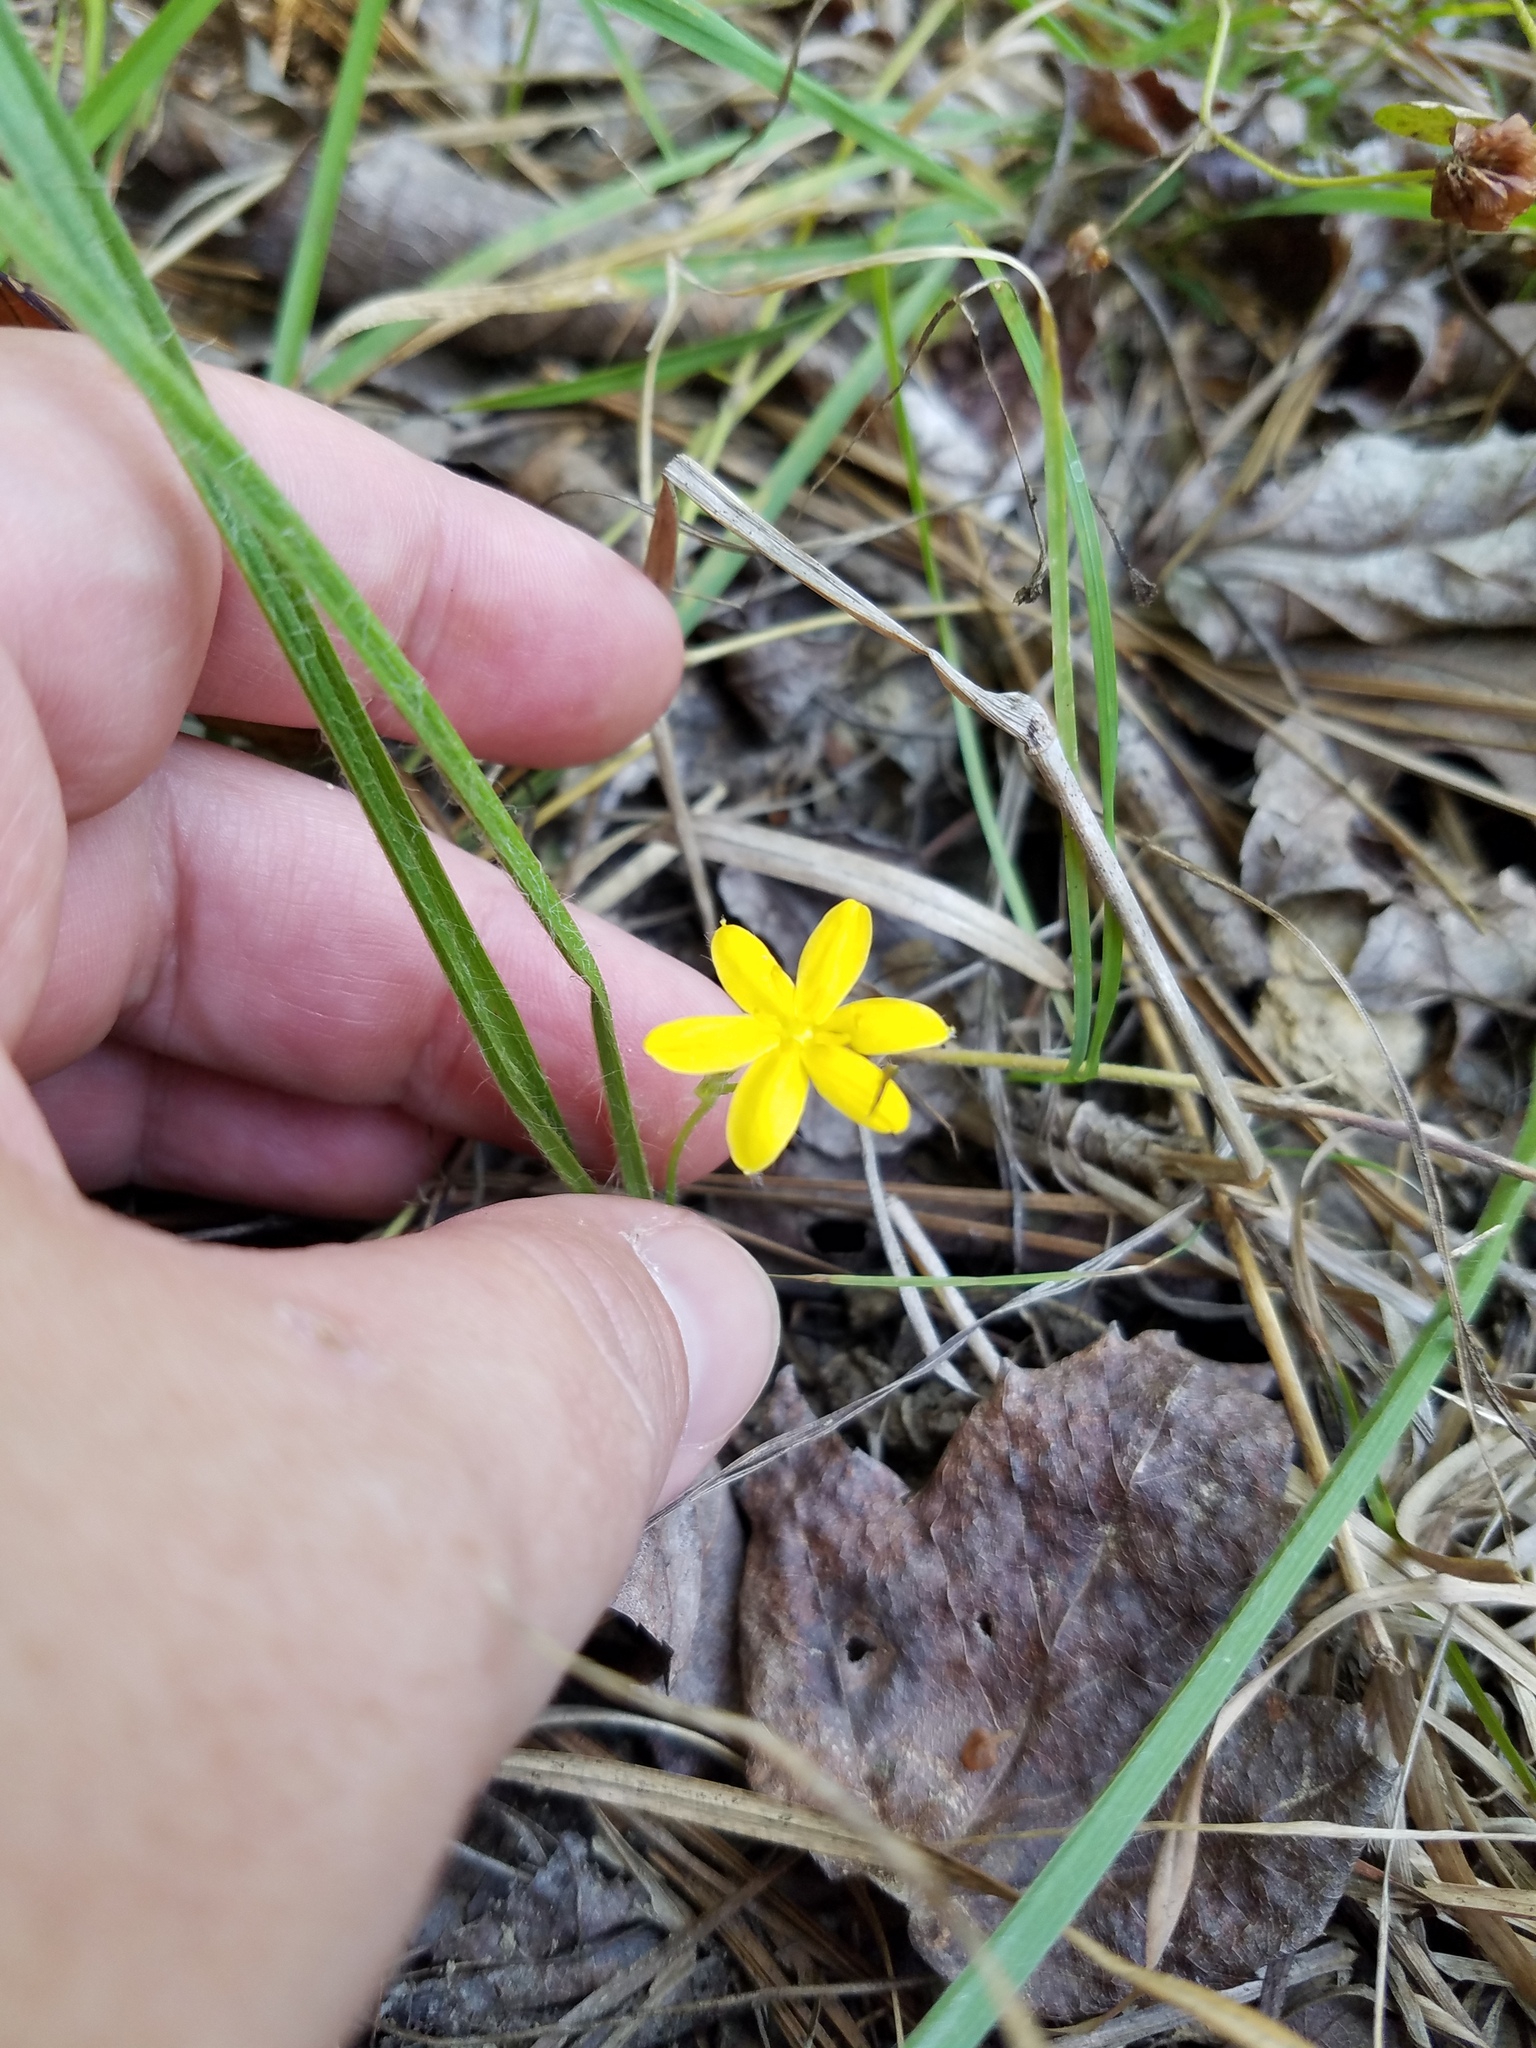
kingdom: Plantae
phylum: Tracheophyta
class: Liliopsida
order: Asparagales
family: Hypoxidaceae
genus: Hypoxis
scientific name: Hypoxis hirsuta
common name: Common goldstar
